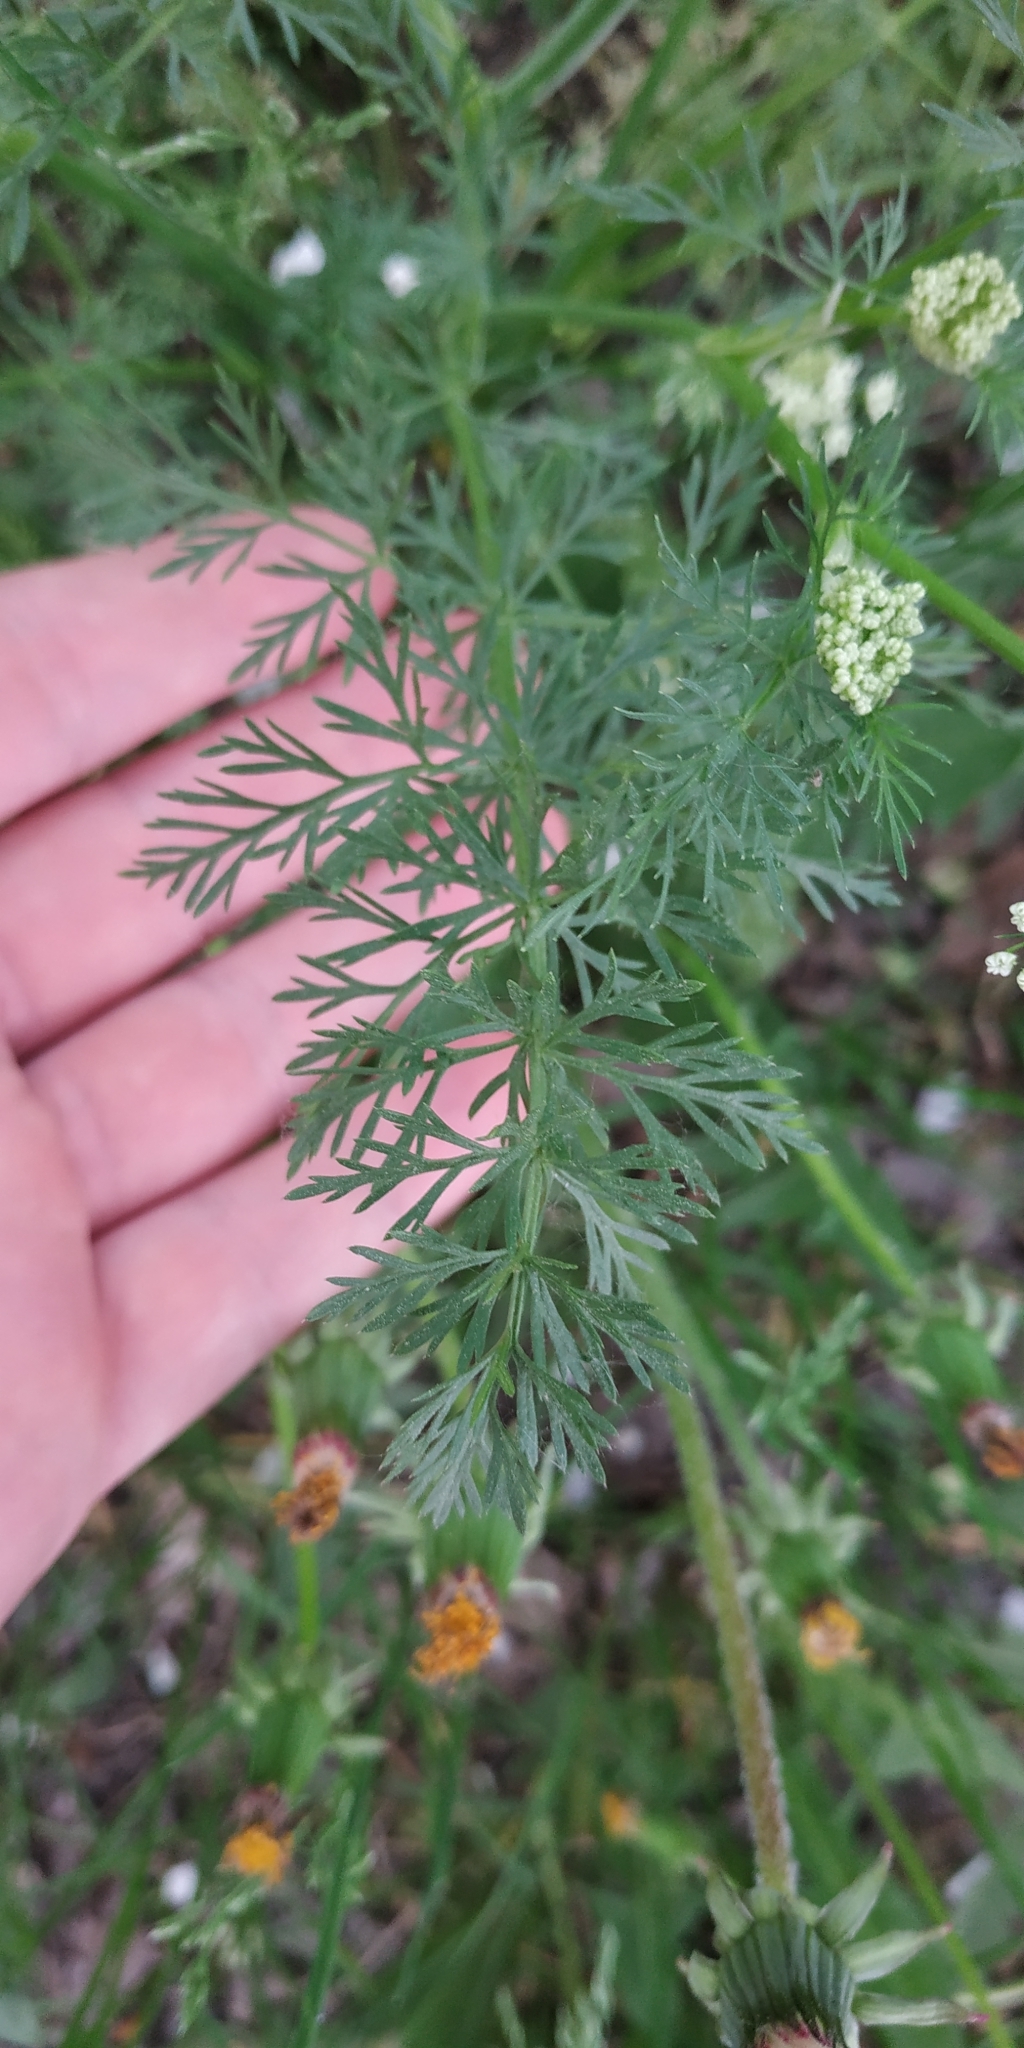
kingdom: Plantae
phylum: Tracheophyta
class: Magnoliopsida
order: Apiales
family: Apiaceae
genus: Carum
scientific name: Carum carvi
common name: Caraway
